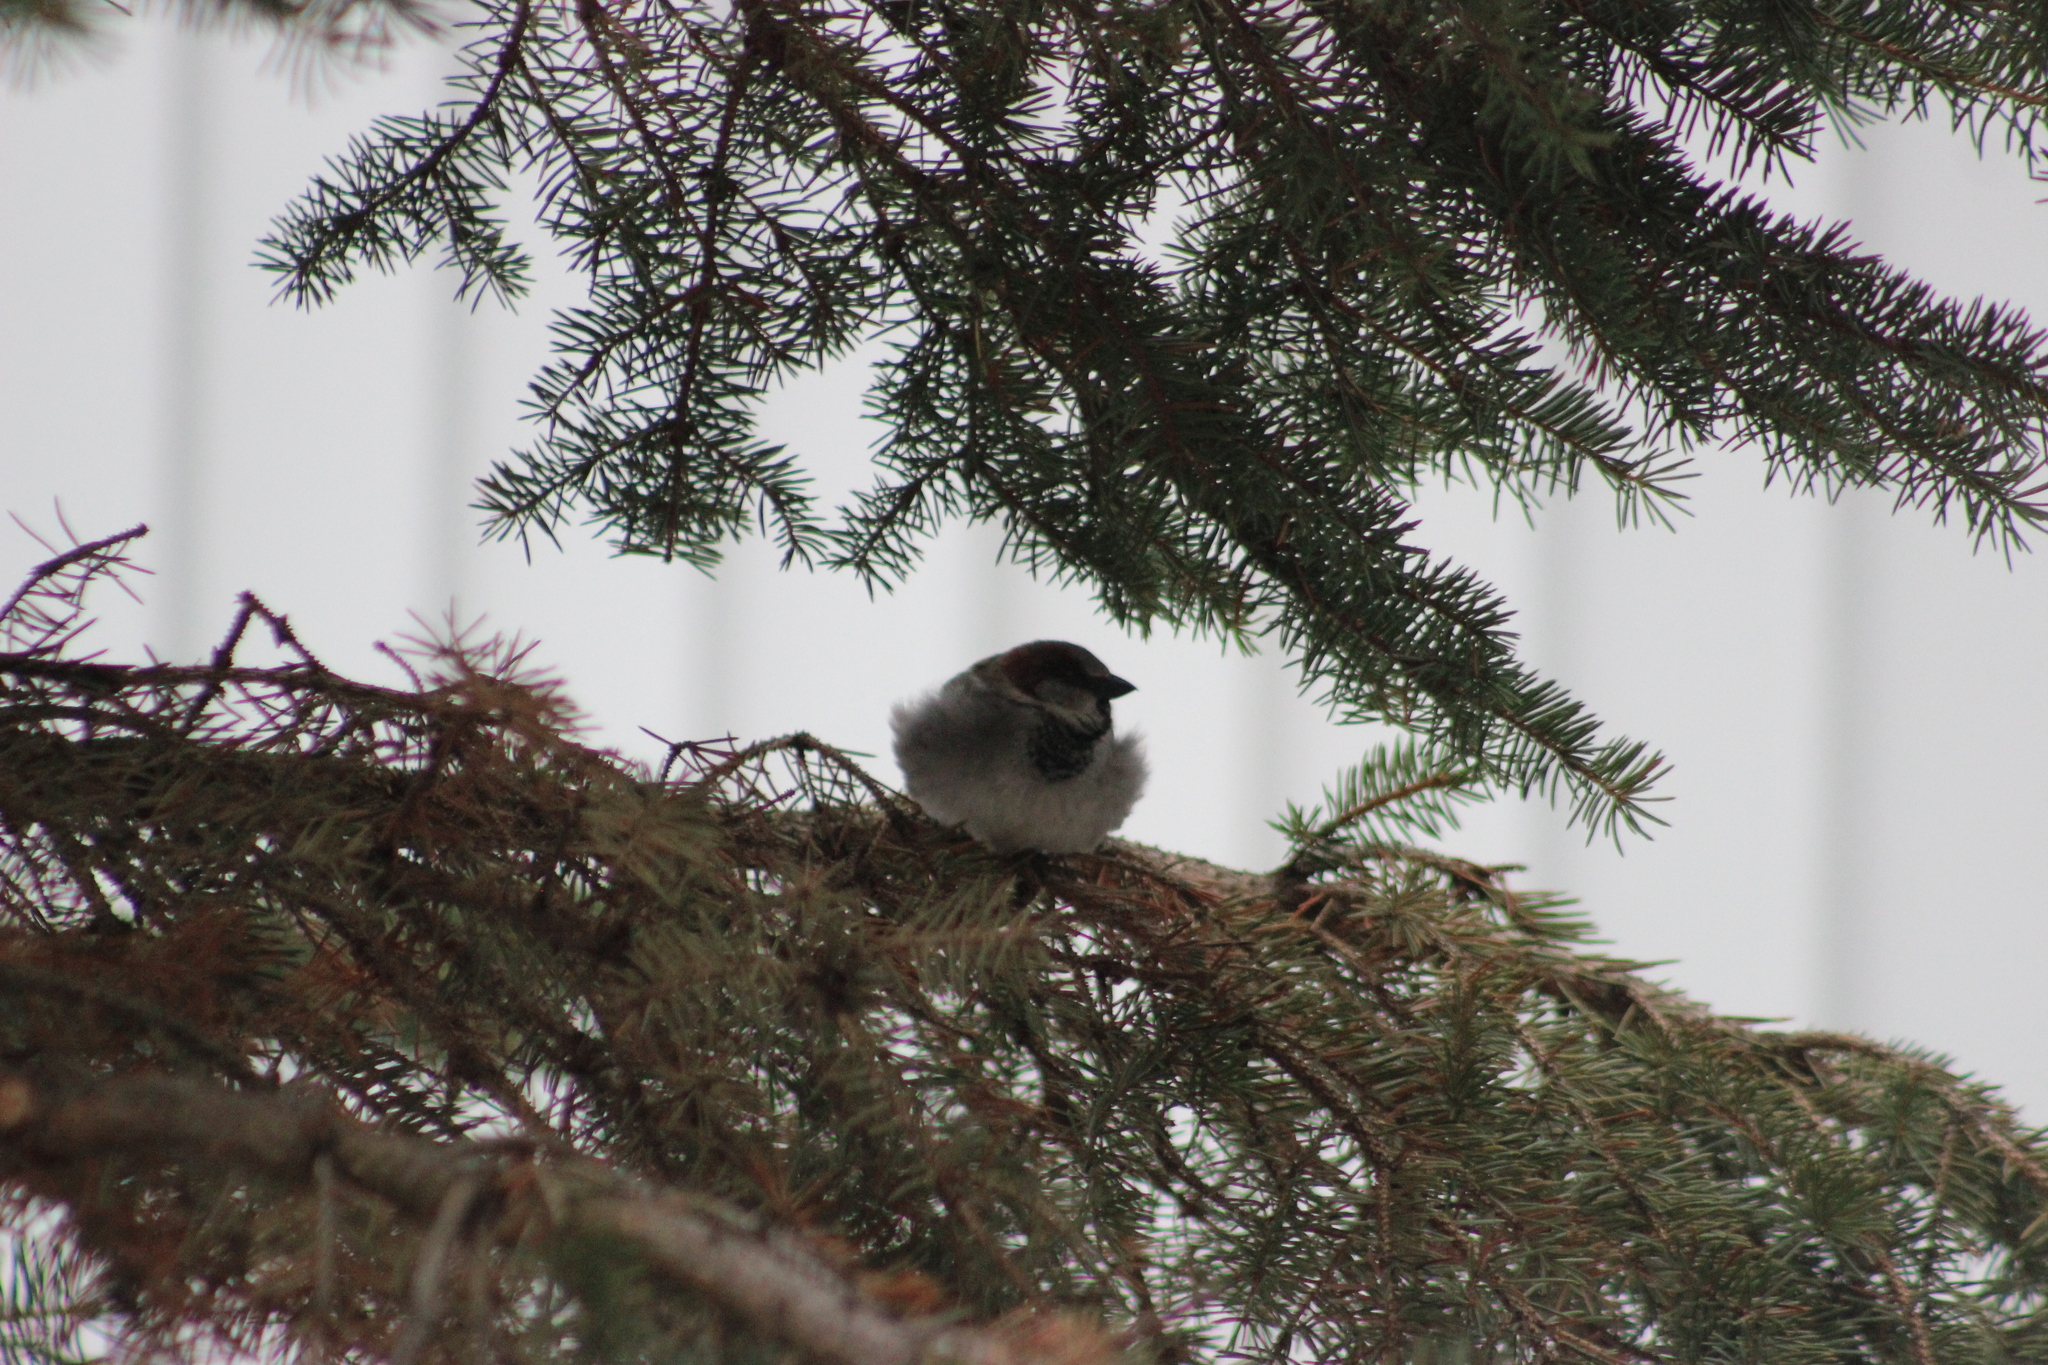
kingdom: Animalia
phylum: Chordata
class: Aves
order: Passeriformes
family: Passeridae
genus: Passer
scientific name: Passer domesticus
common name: House sparrow
